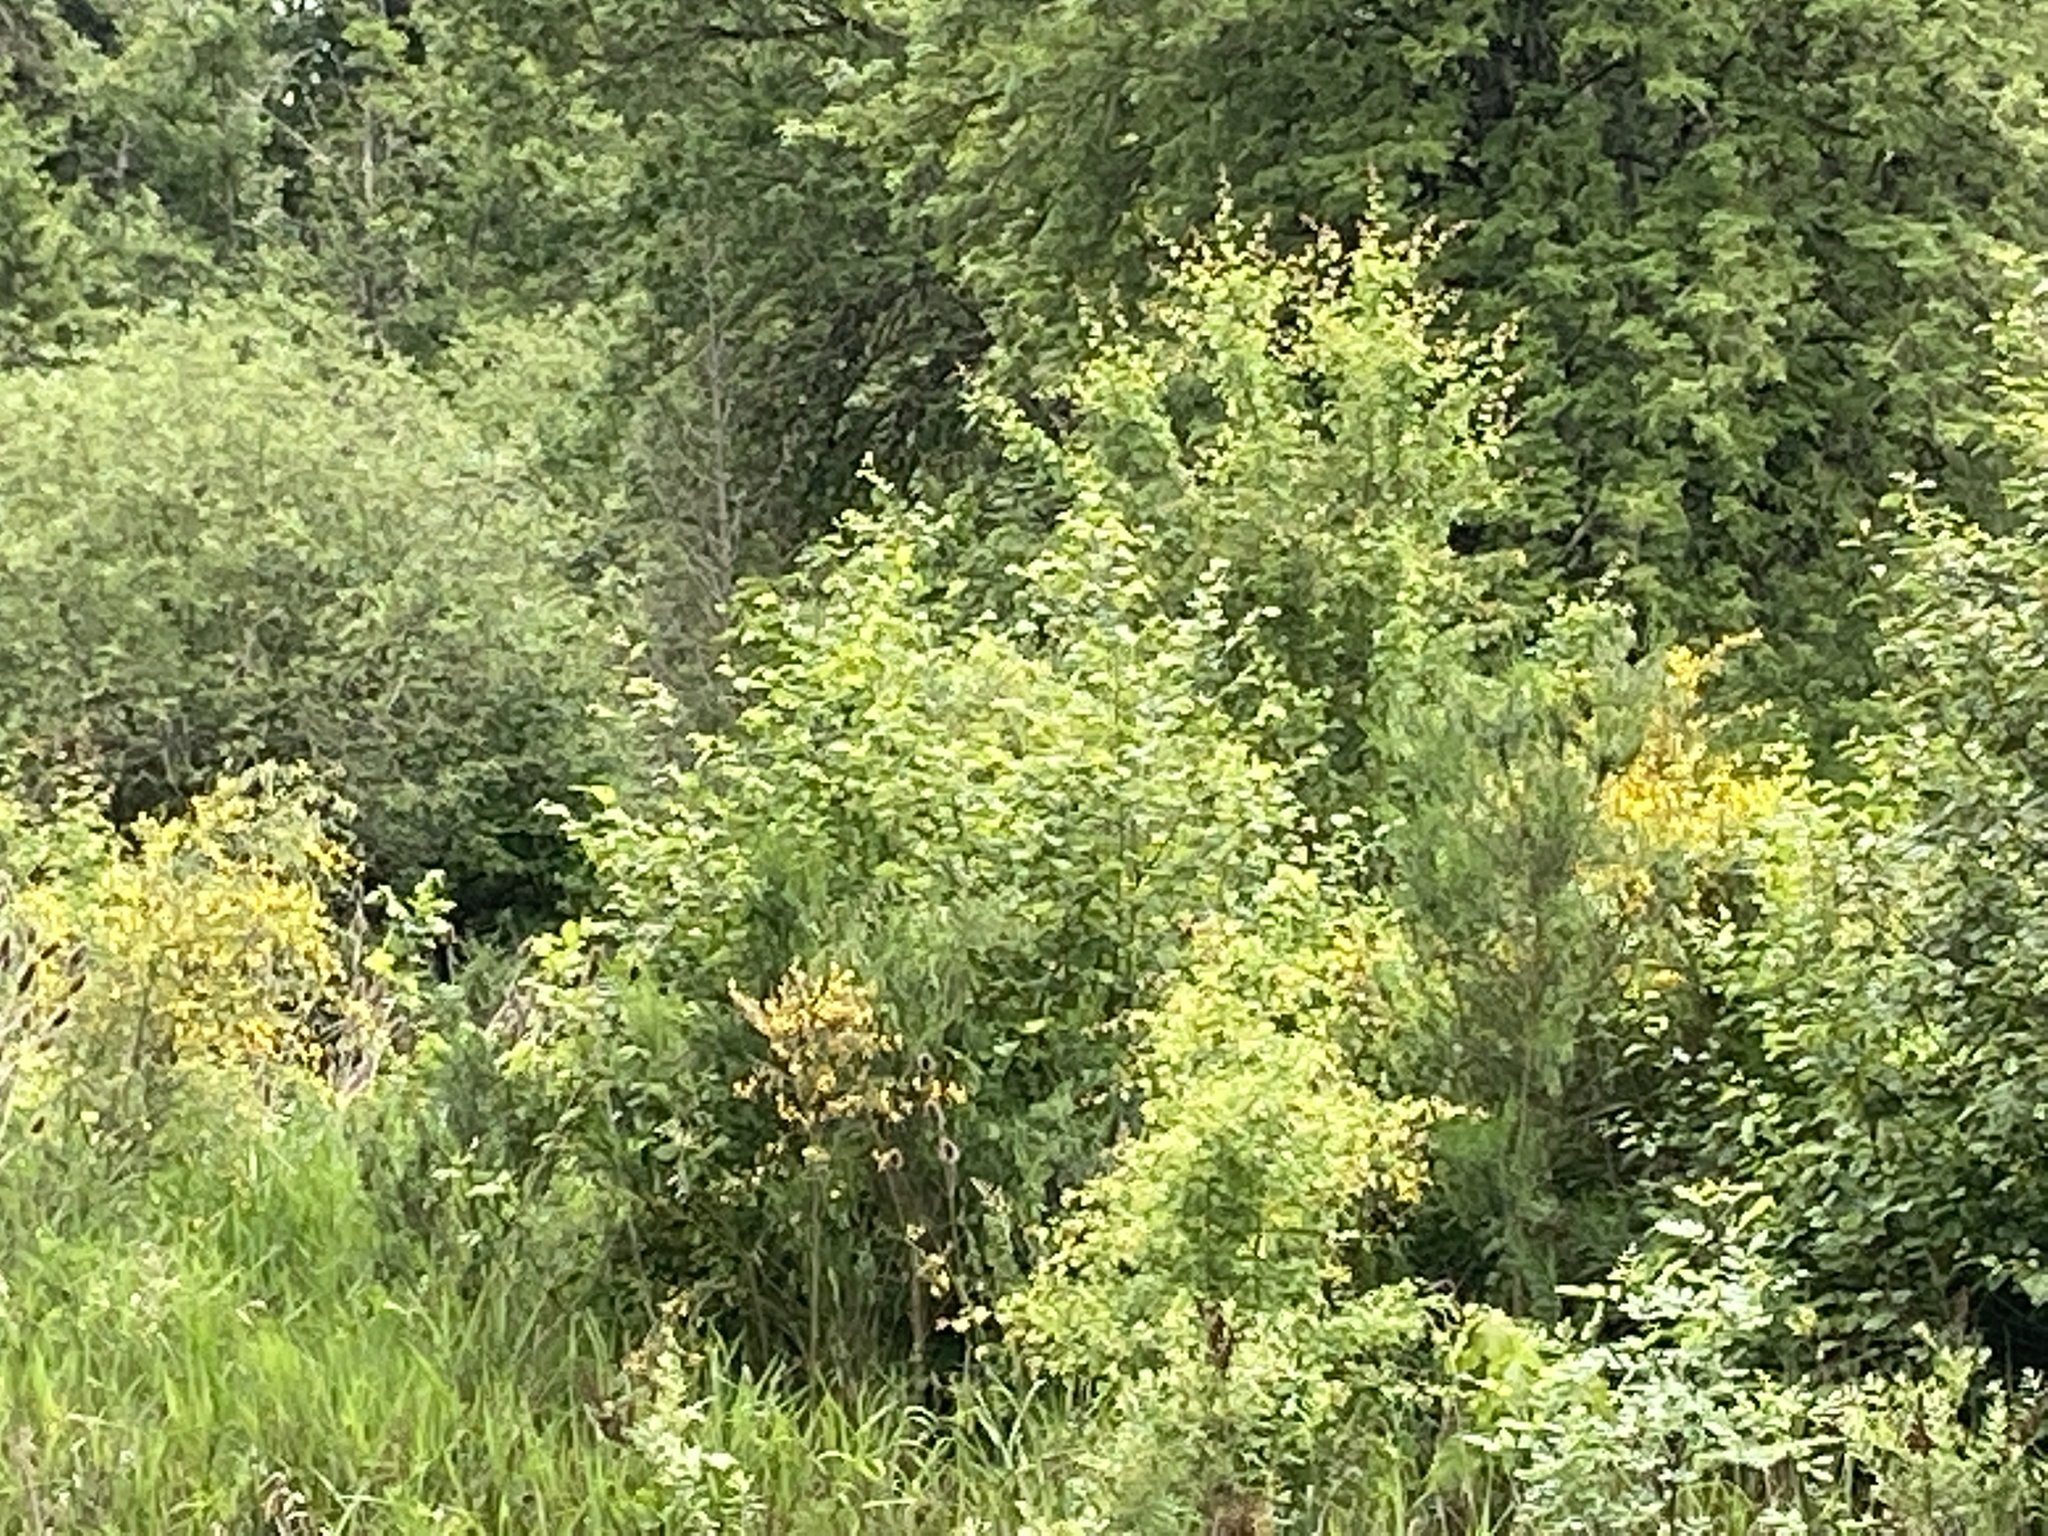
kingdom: Plantae
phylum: Tracheophyta
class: Magnoliopsida
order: Fabales
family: Fabaceae
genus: Cytisus
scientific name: Cytisus scoparius
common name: Scotch broom
